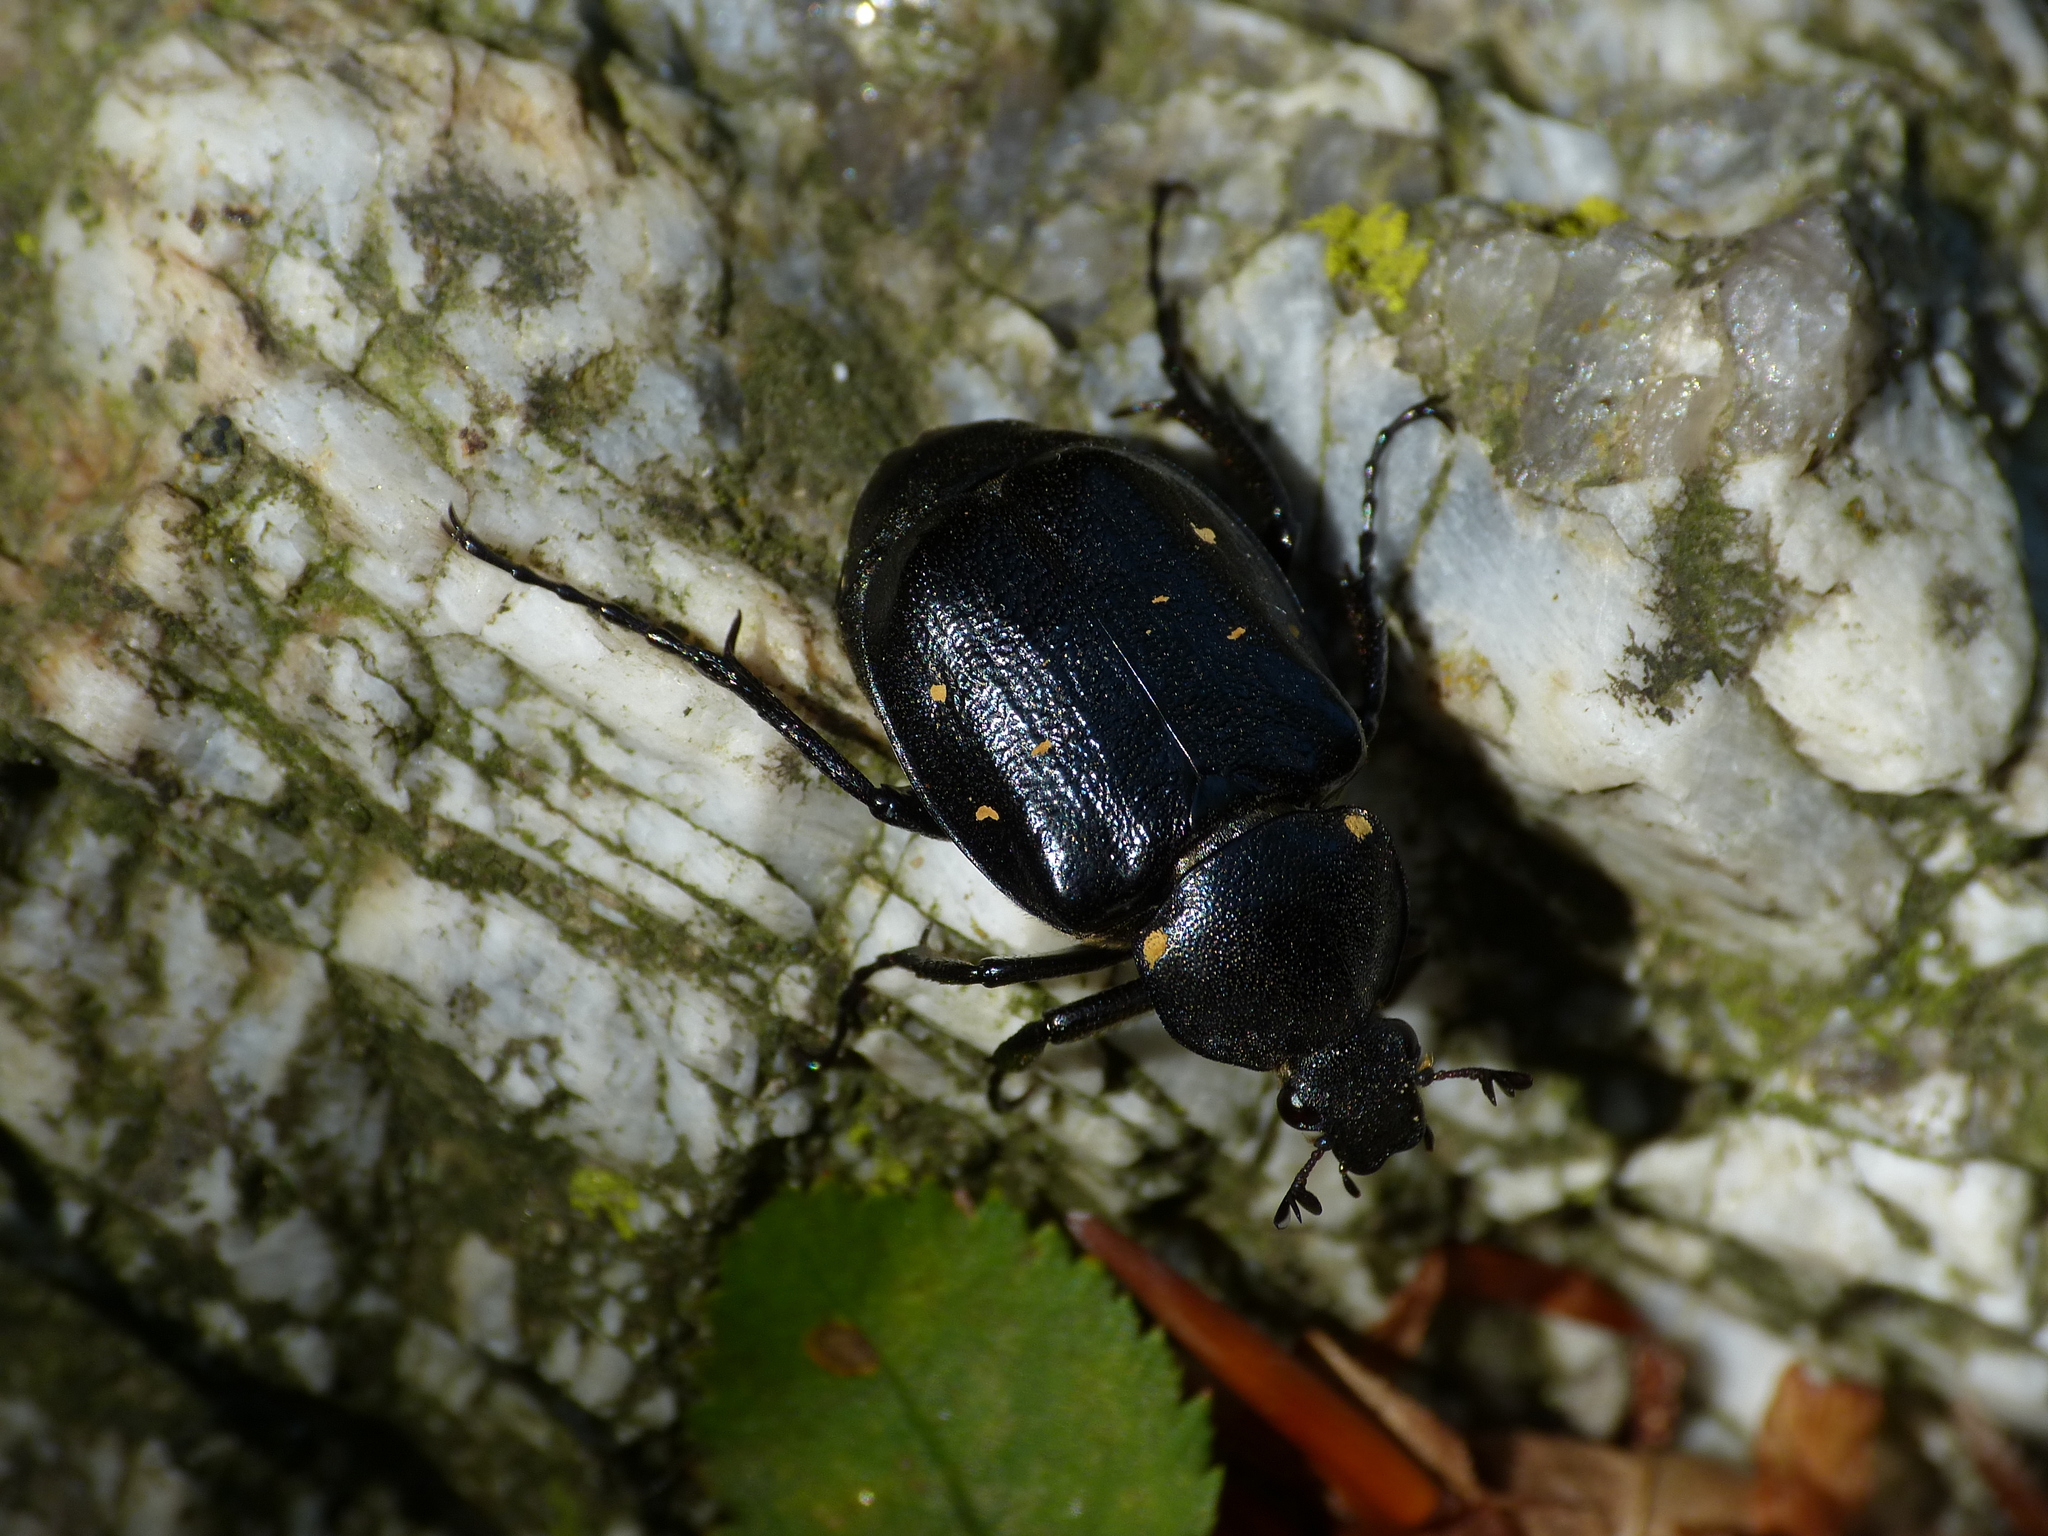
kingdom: Animalia
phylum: Arthropoda
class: Insecta
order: Coleoptera
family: Scarabaeidae
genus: Gnorimus
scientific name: Gnorimus variabilis
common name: Variable chafer
